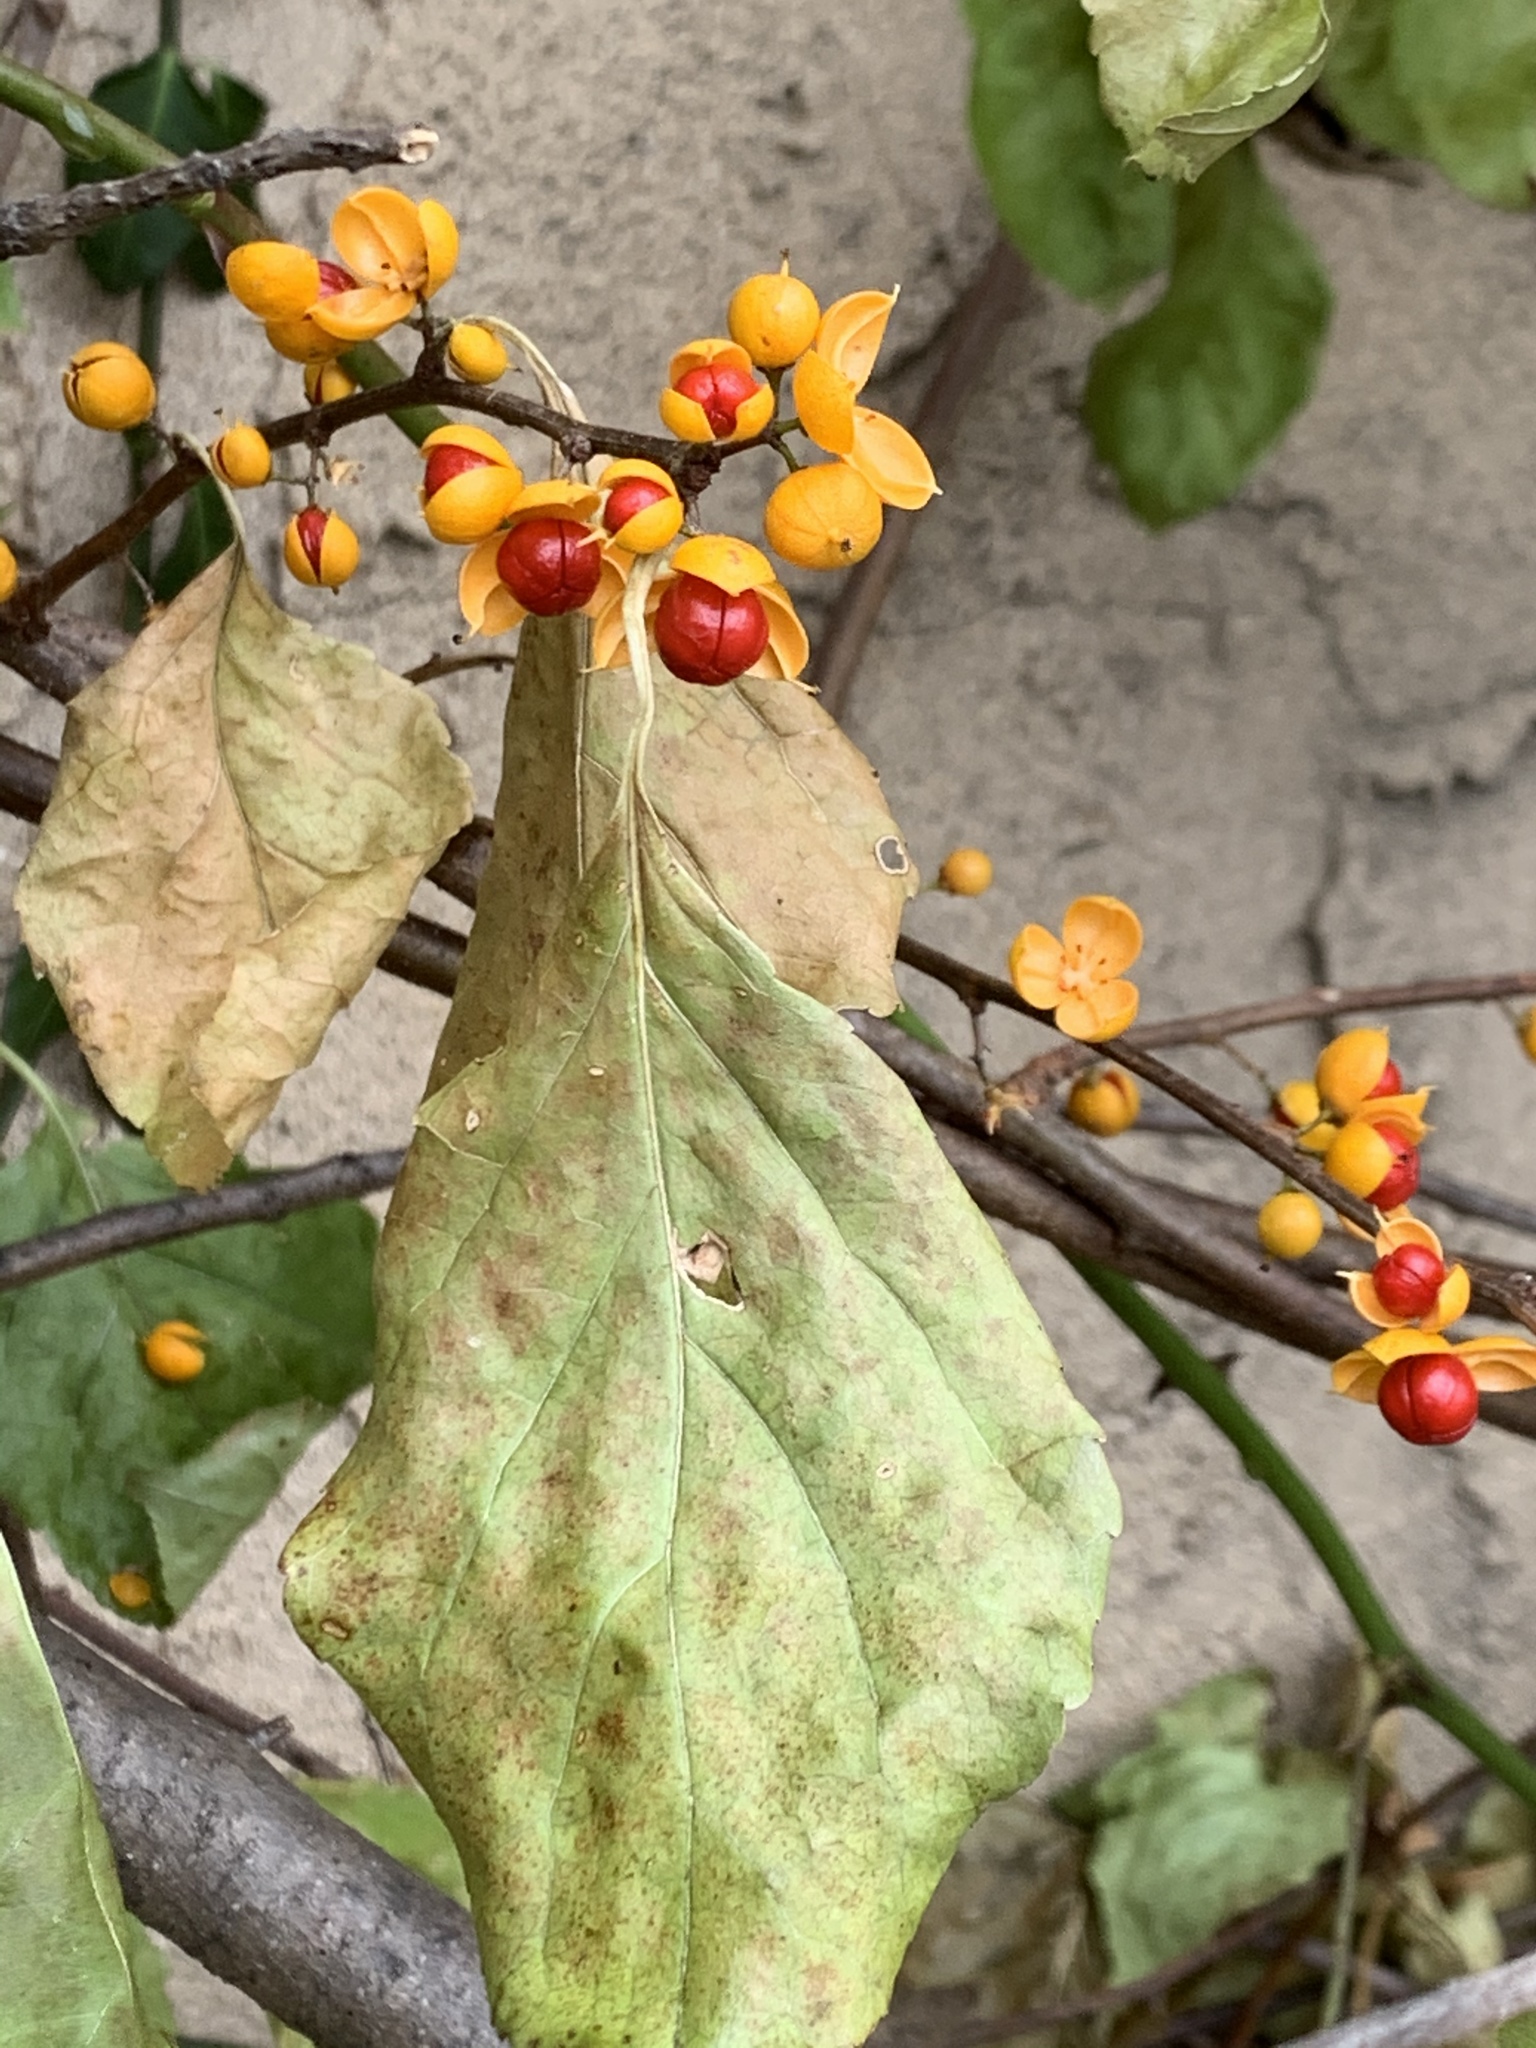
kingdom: Plantae
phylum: Tracheophyta
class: Magnoliopsida
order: Celastrales
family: Celastraceae
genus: Celastrus
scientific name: Celastrus orbiculatus
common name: Oriental bittersweet
